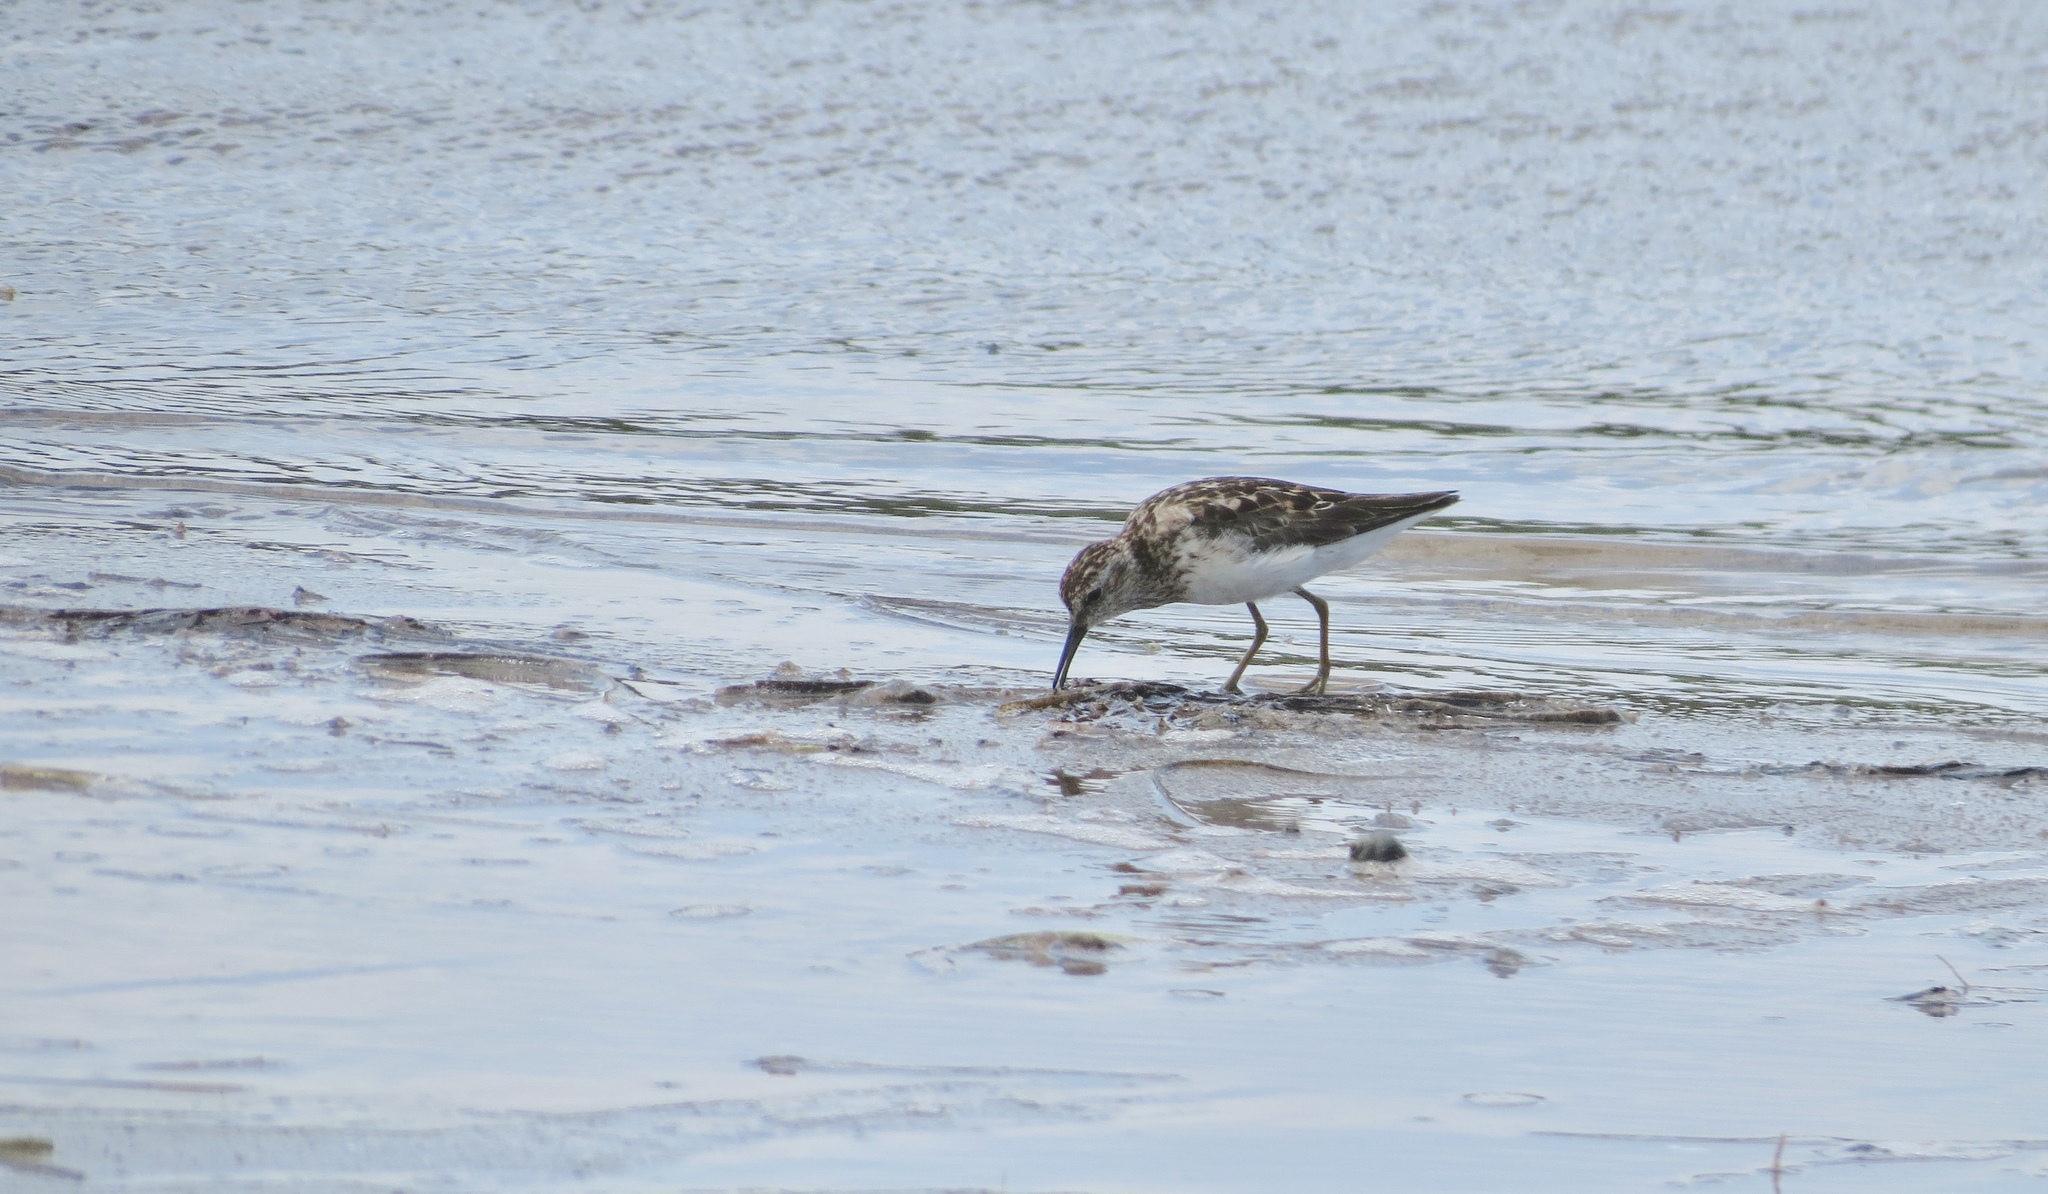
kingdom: Animalia
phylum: Chordata
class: Aves
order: Charadriiformes
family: Scolopacidae
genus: Calidris
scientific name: Calidris minutilla
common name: Least sandpiper
